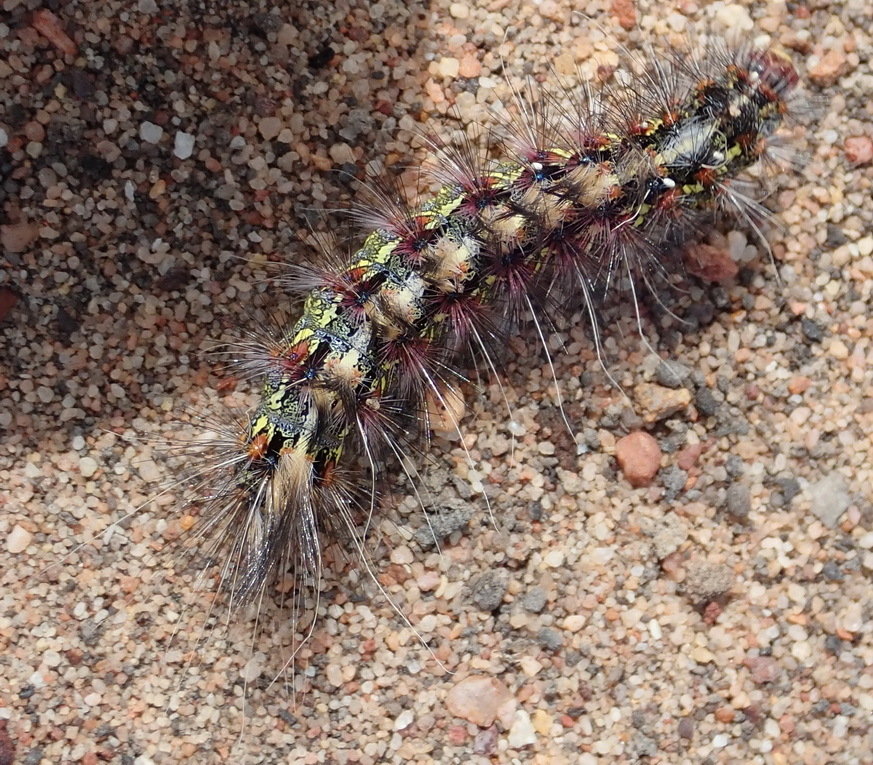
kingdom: Animalia
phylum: Arthropoda
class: Insecta
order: Lepidoptera
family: Erebidae
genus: Paralacydes
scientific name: Paralacydes vocula
